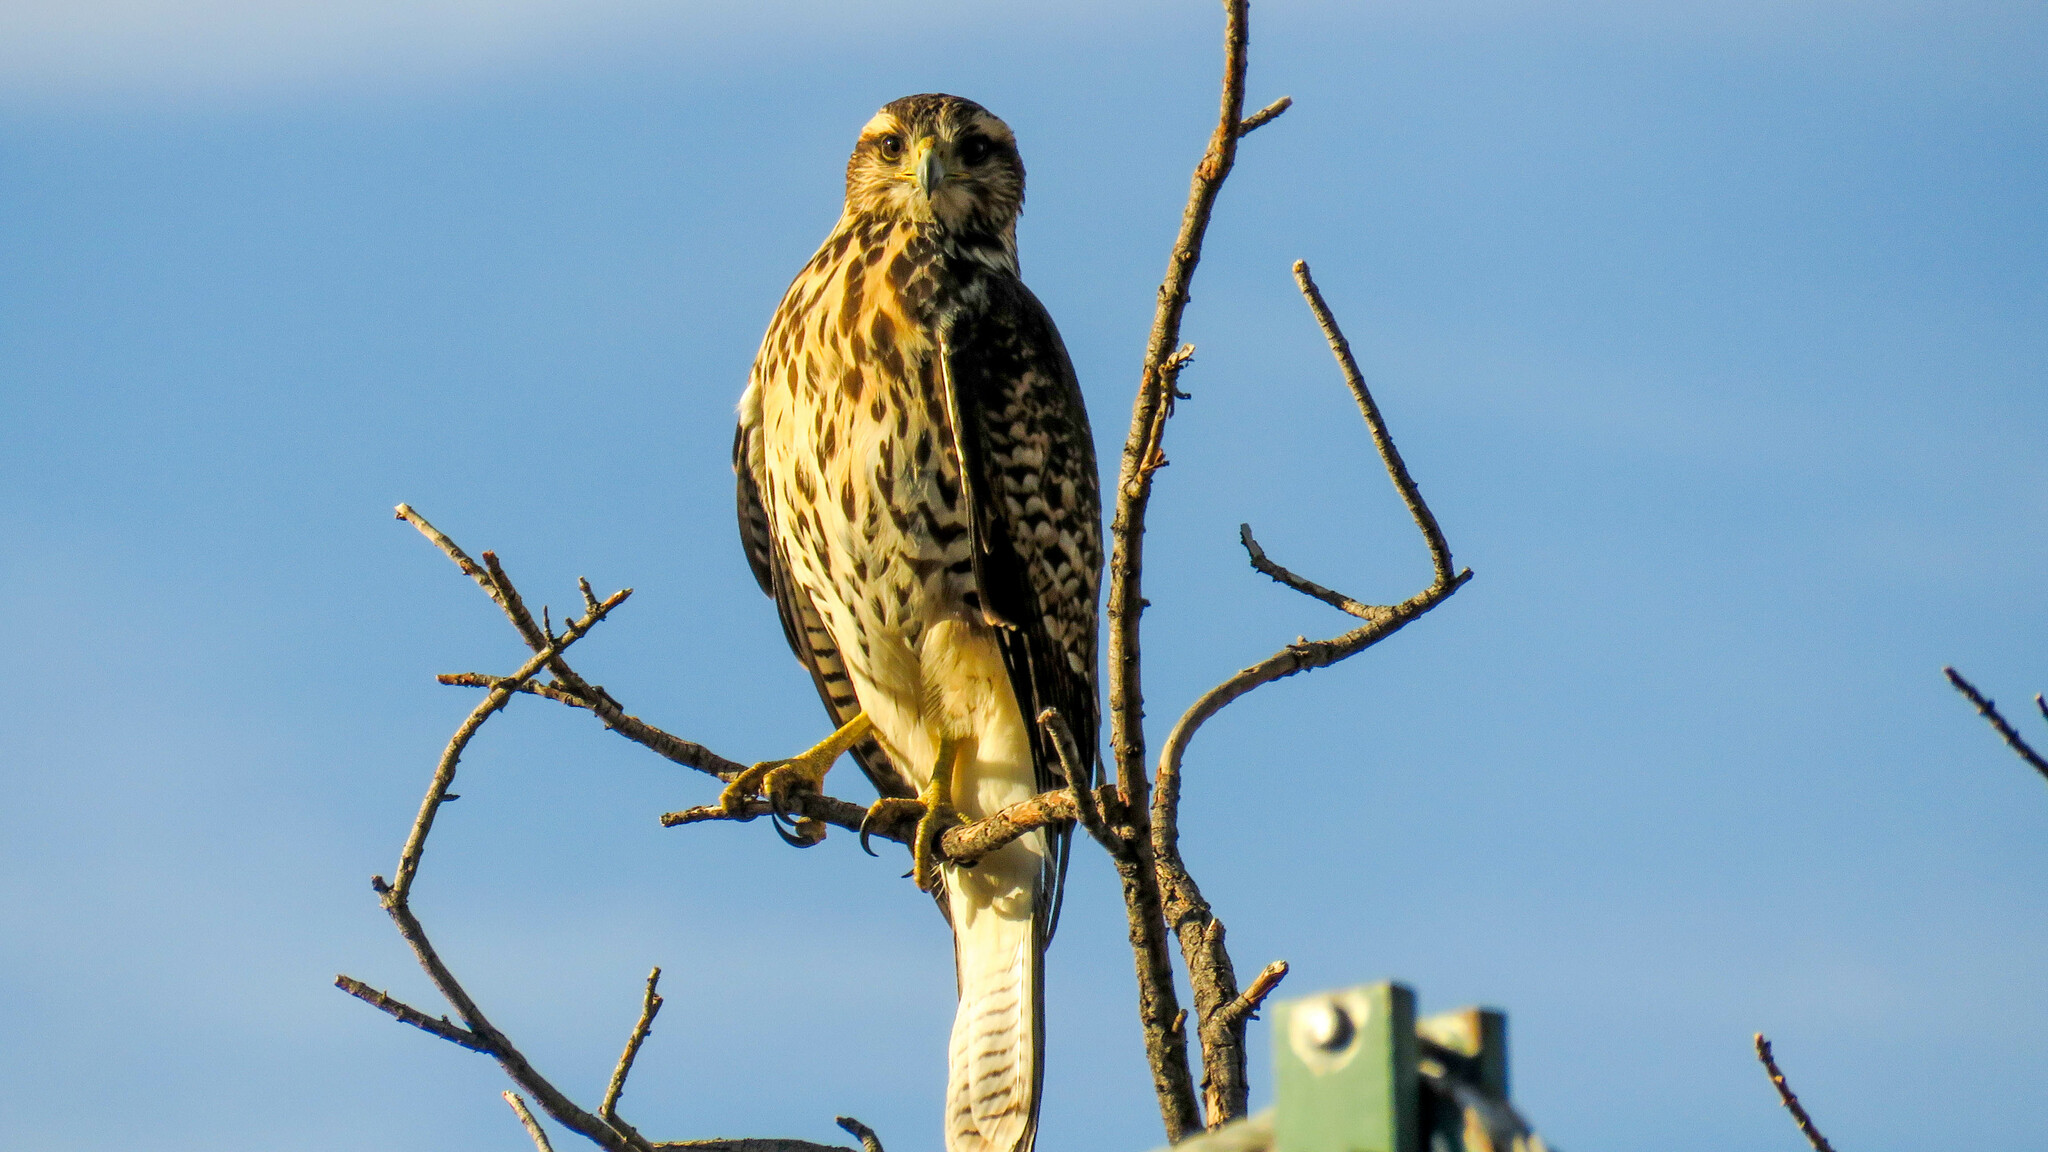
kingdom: Animalia
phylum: Chordata
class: Aves
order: Accipitriformes
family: Accipitridae
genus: Parabuteo
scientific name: Parabuteo unicinctus
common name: Harris's hawk
